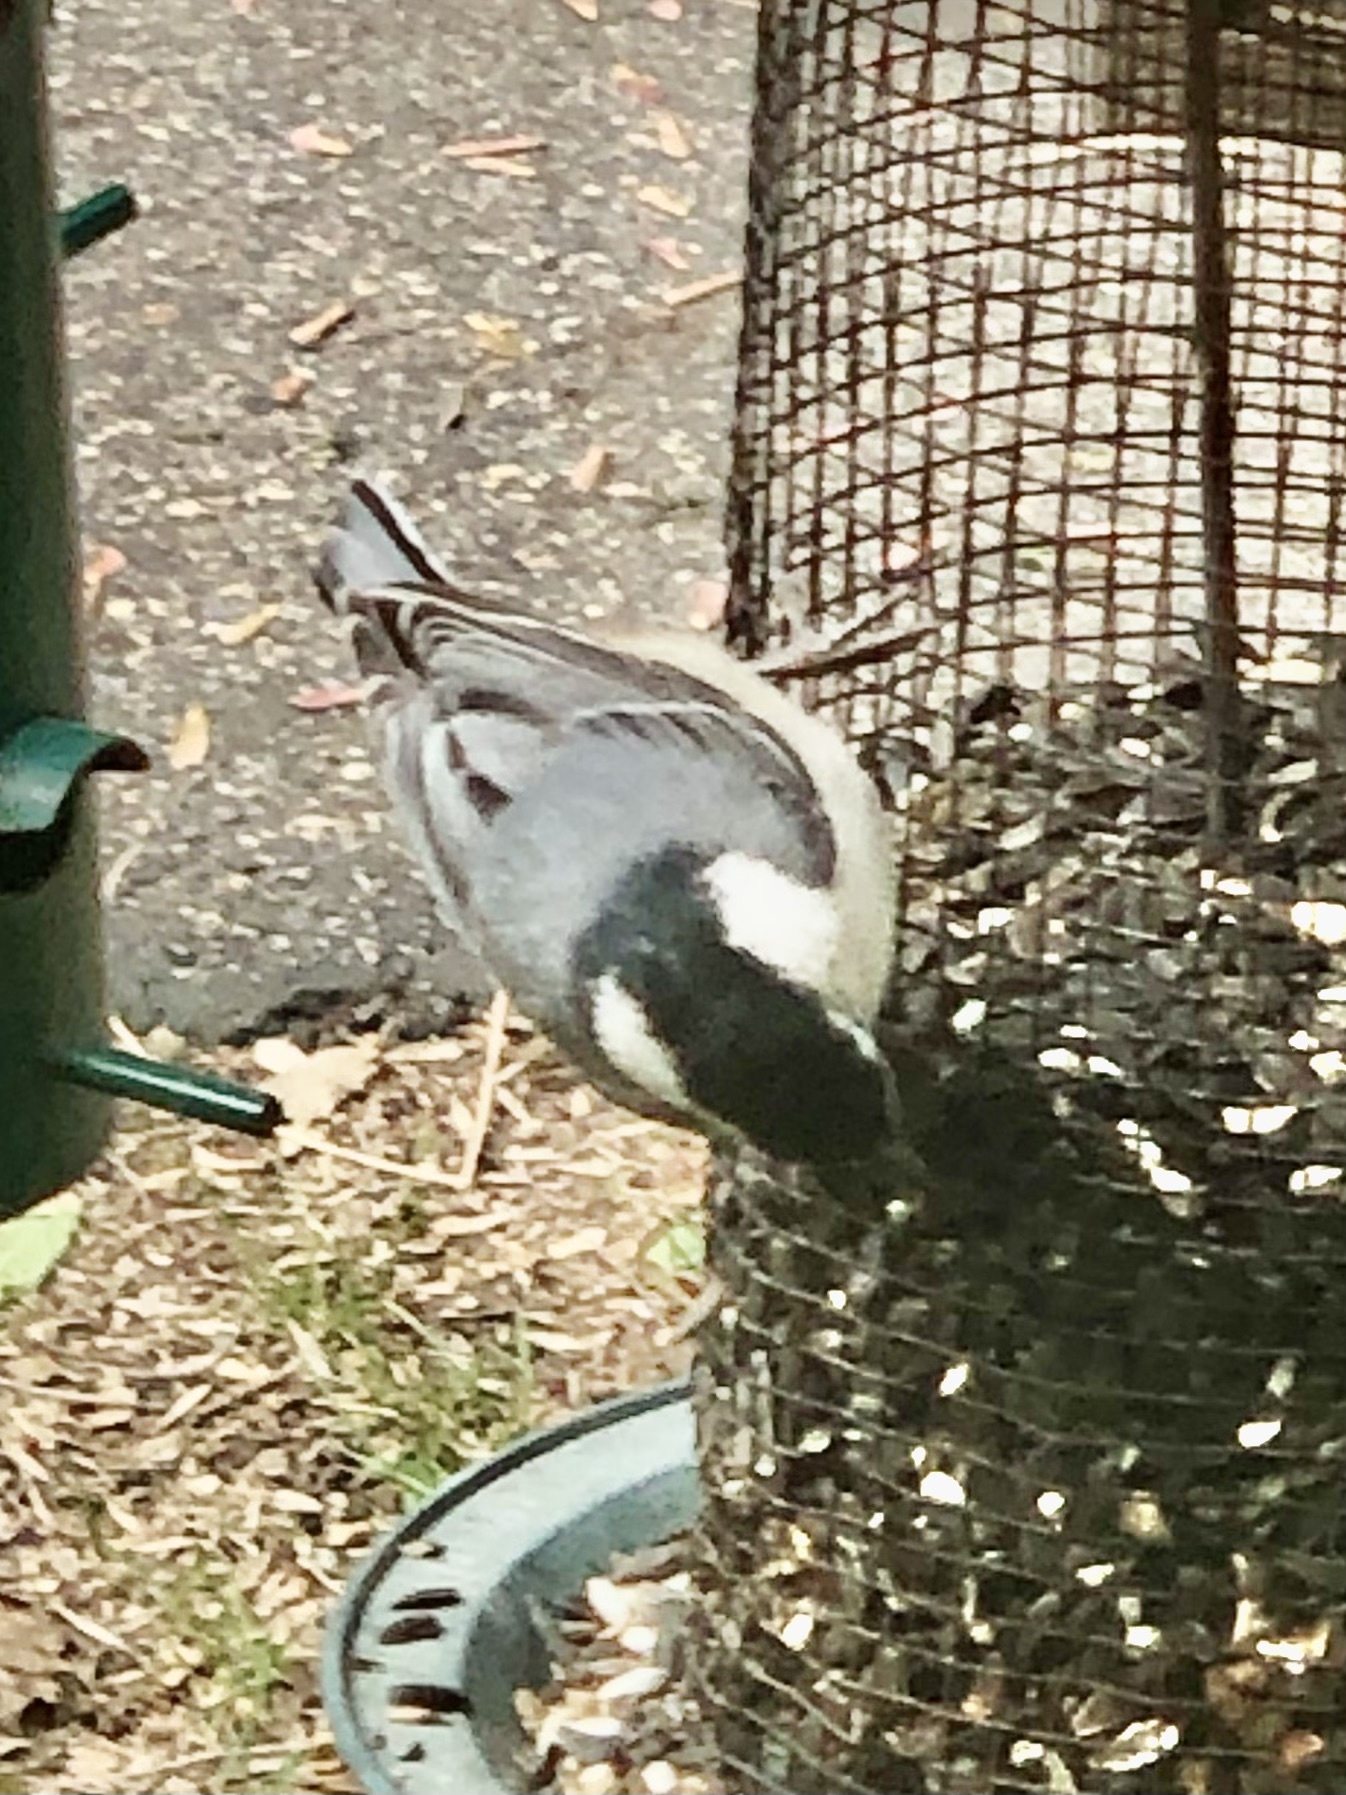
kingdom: Animalia
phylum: Chordata
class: Aves
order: Passeriformes
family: Sittidae
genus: Sitta
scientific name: Sitta carolinensis
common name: White-breasted nuthatch
